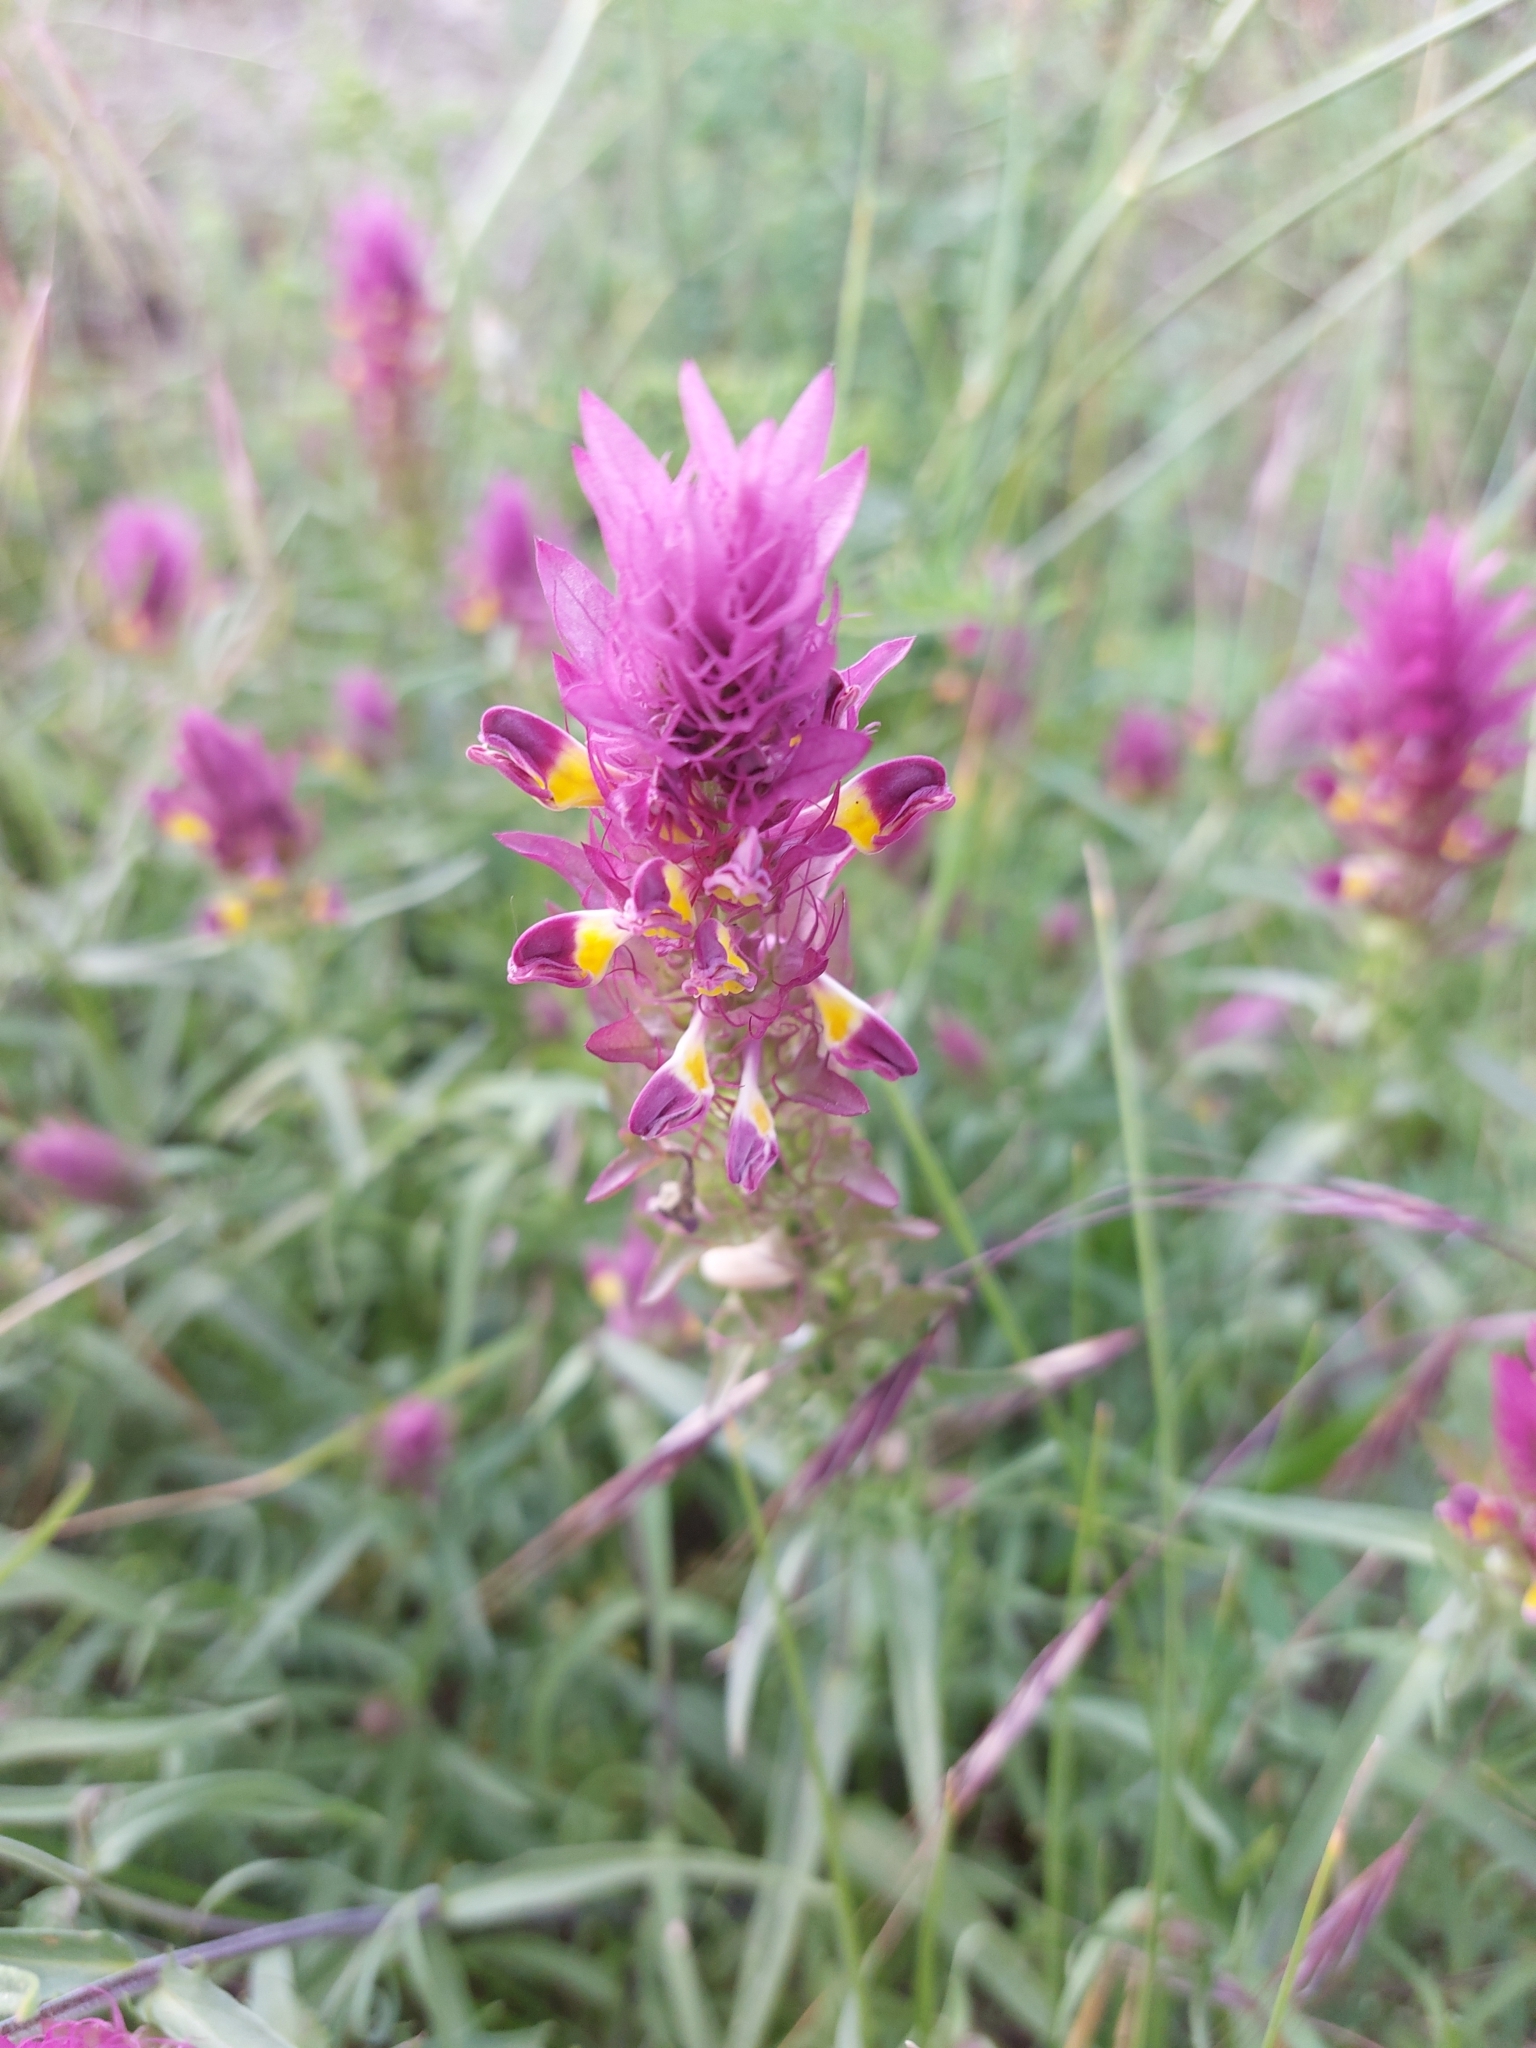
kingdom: Plantae
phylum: Tracheophyta
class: Magnoliopsida
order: Lamiales
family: Orobanchaceae
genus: Melampyrum
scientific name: Melampyrum arvense
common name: Field cow-wheat
